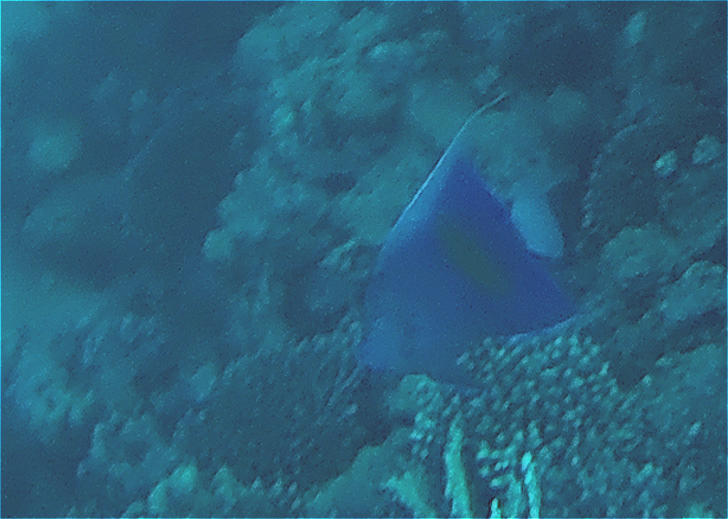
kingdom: Animalia
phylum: Chordata
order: Perciformes
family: Pomacanthidae
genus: Pomacanthus
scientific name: Pomacanthus maculosus
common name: Yellowbar angelfish
